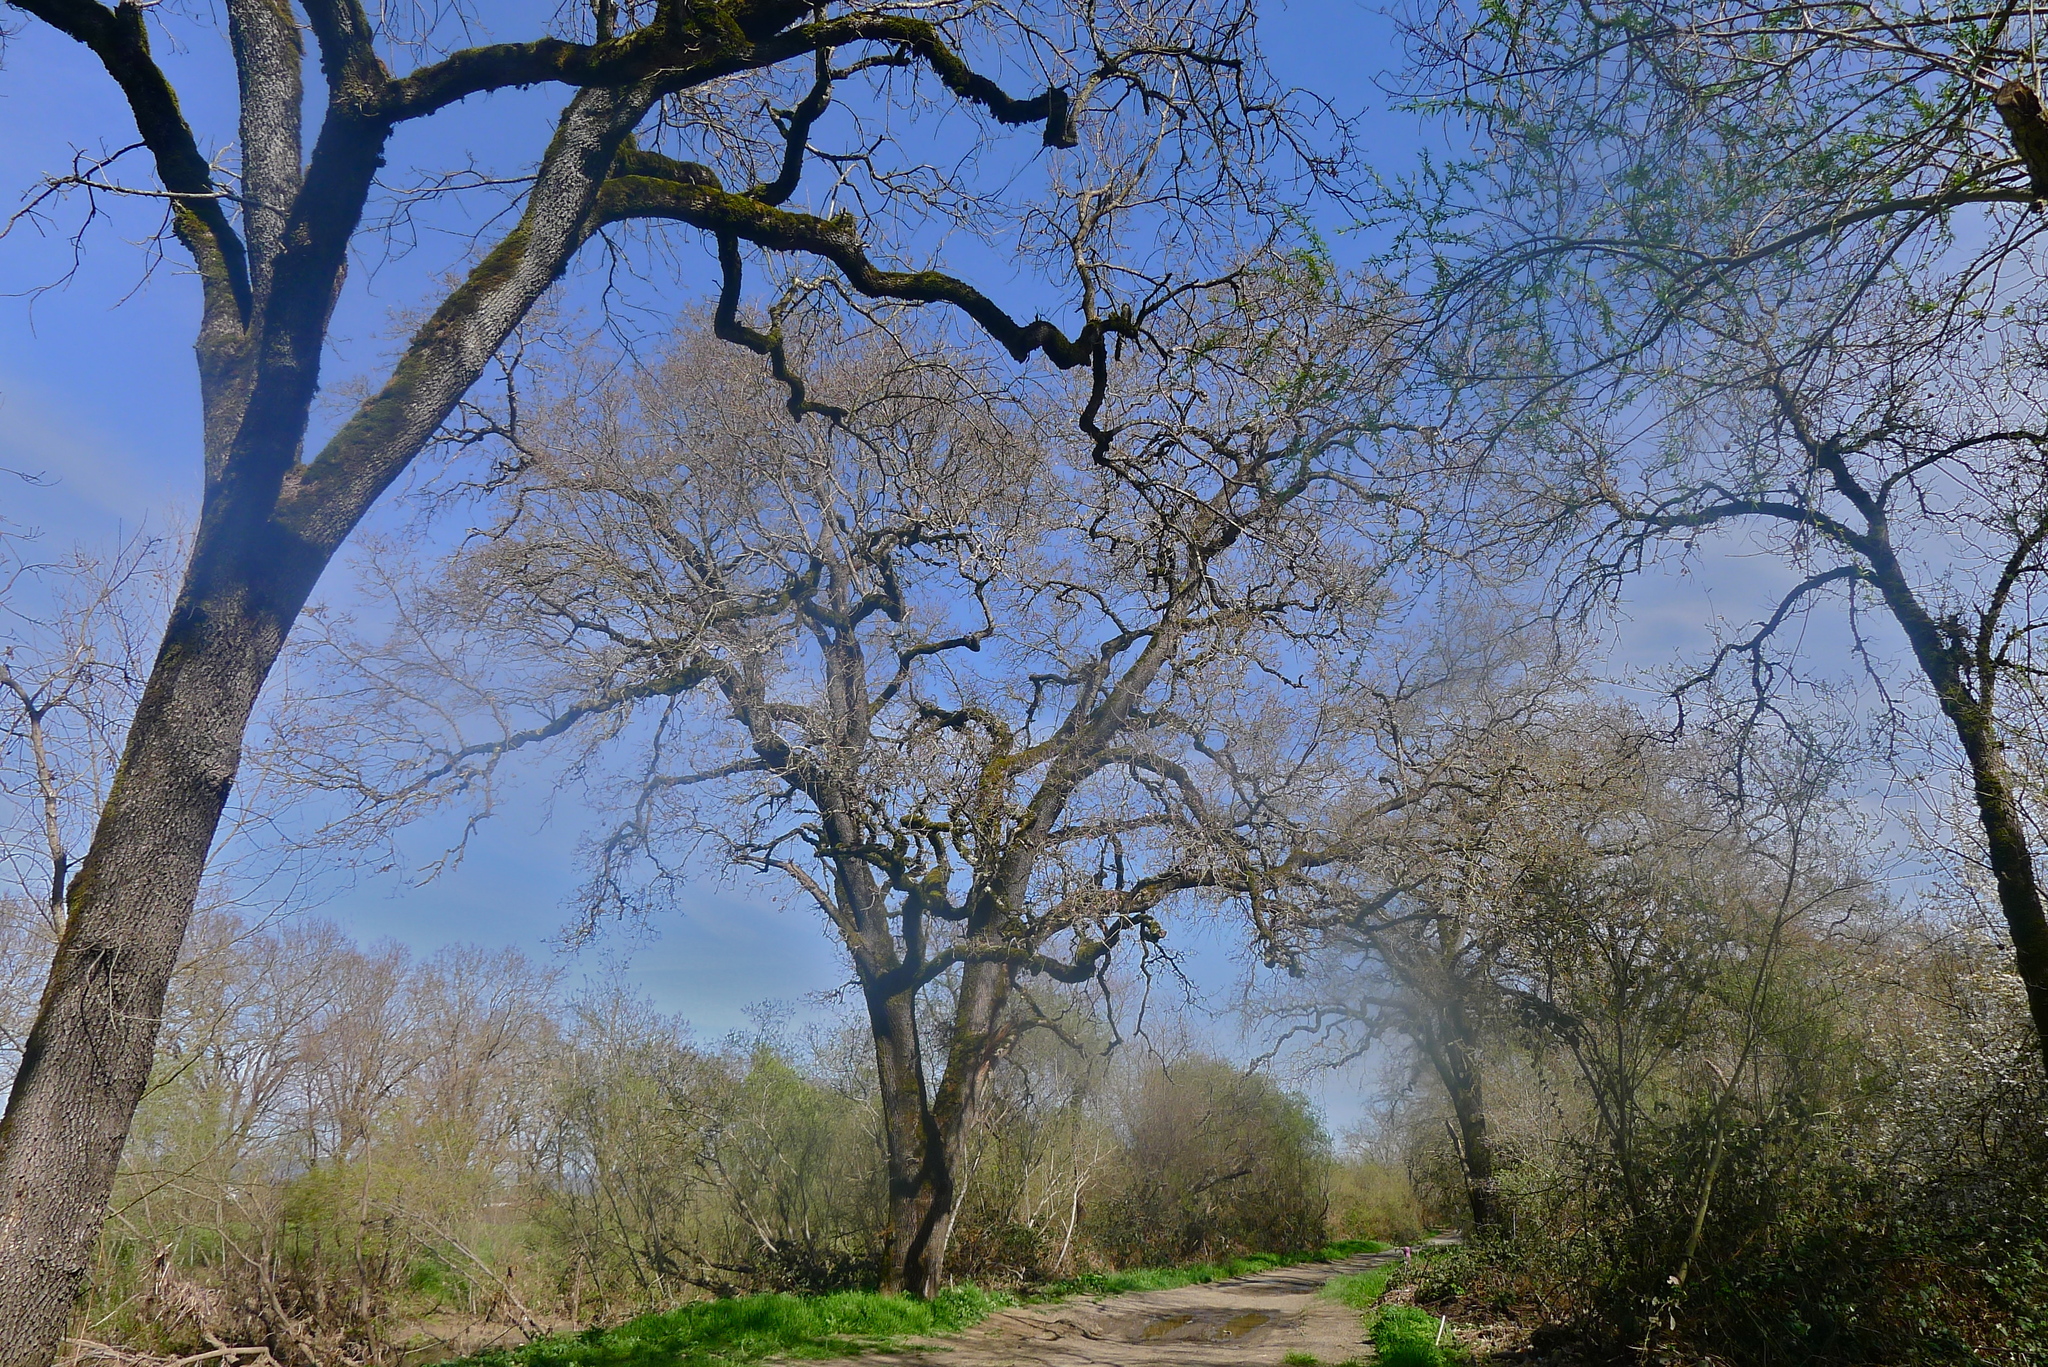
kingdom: Plantae
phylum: Tracheophyta
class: Magnoliopsida
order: Fagales
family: Fagaceae
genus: Quercus
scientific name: Quercus lobata
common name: Valley oak
